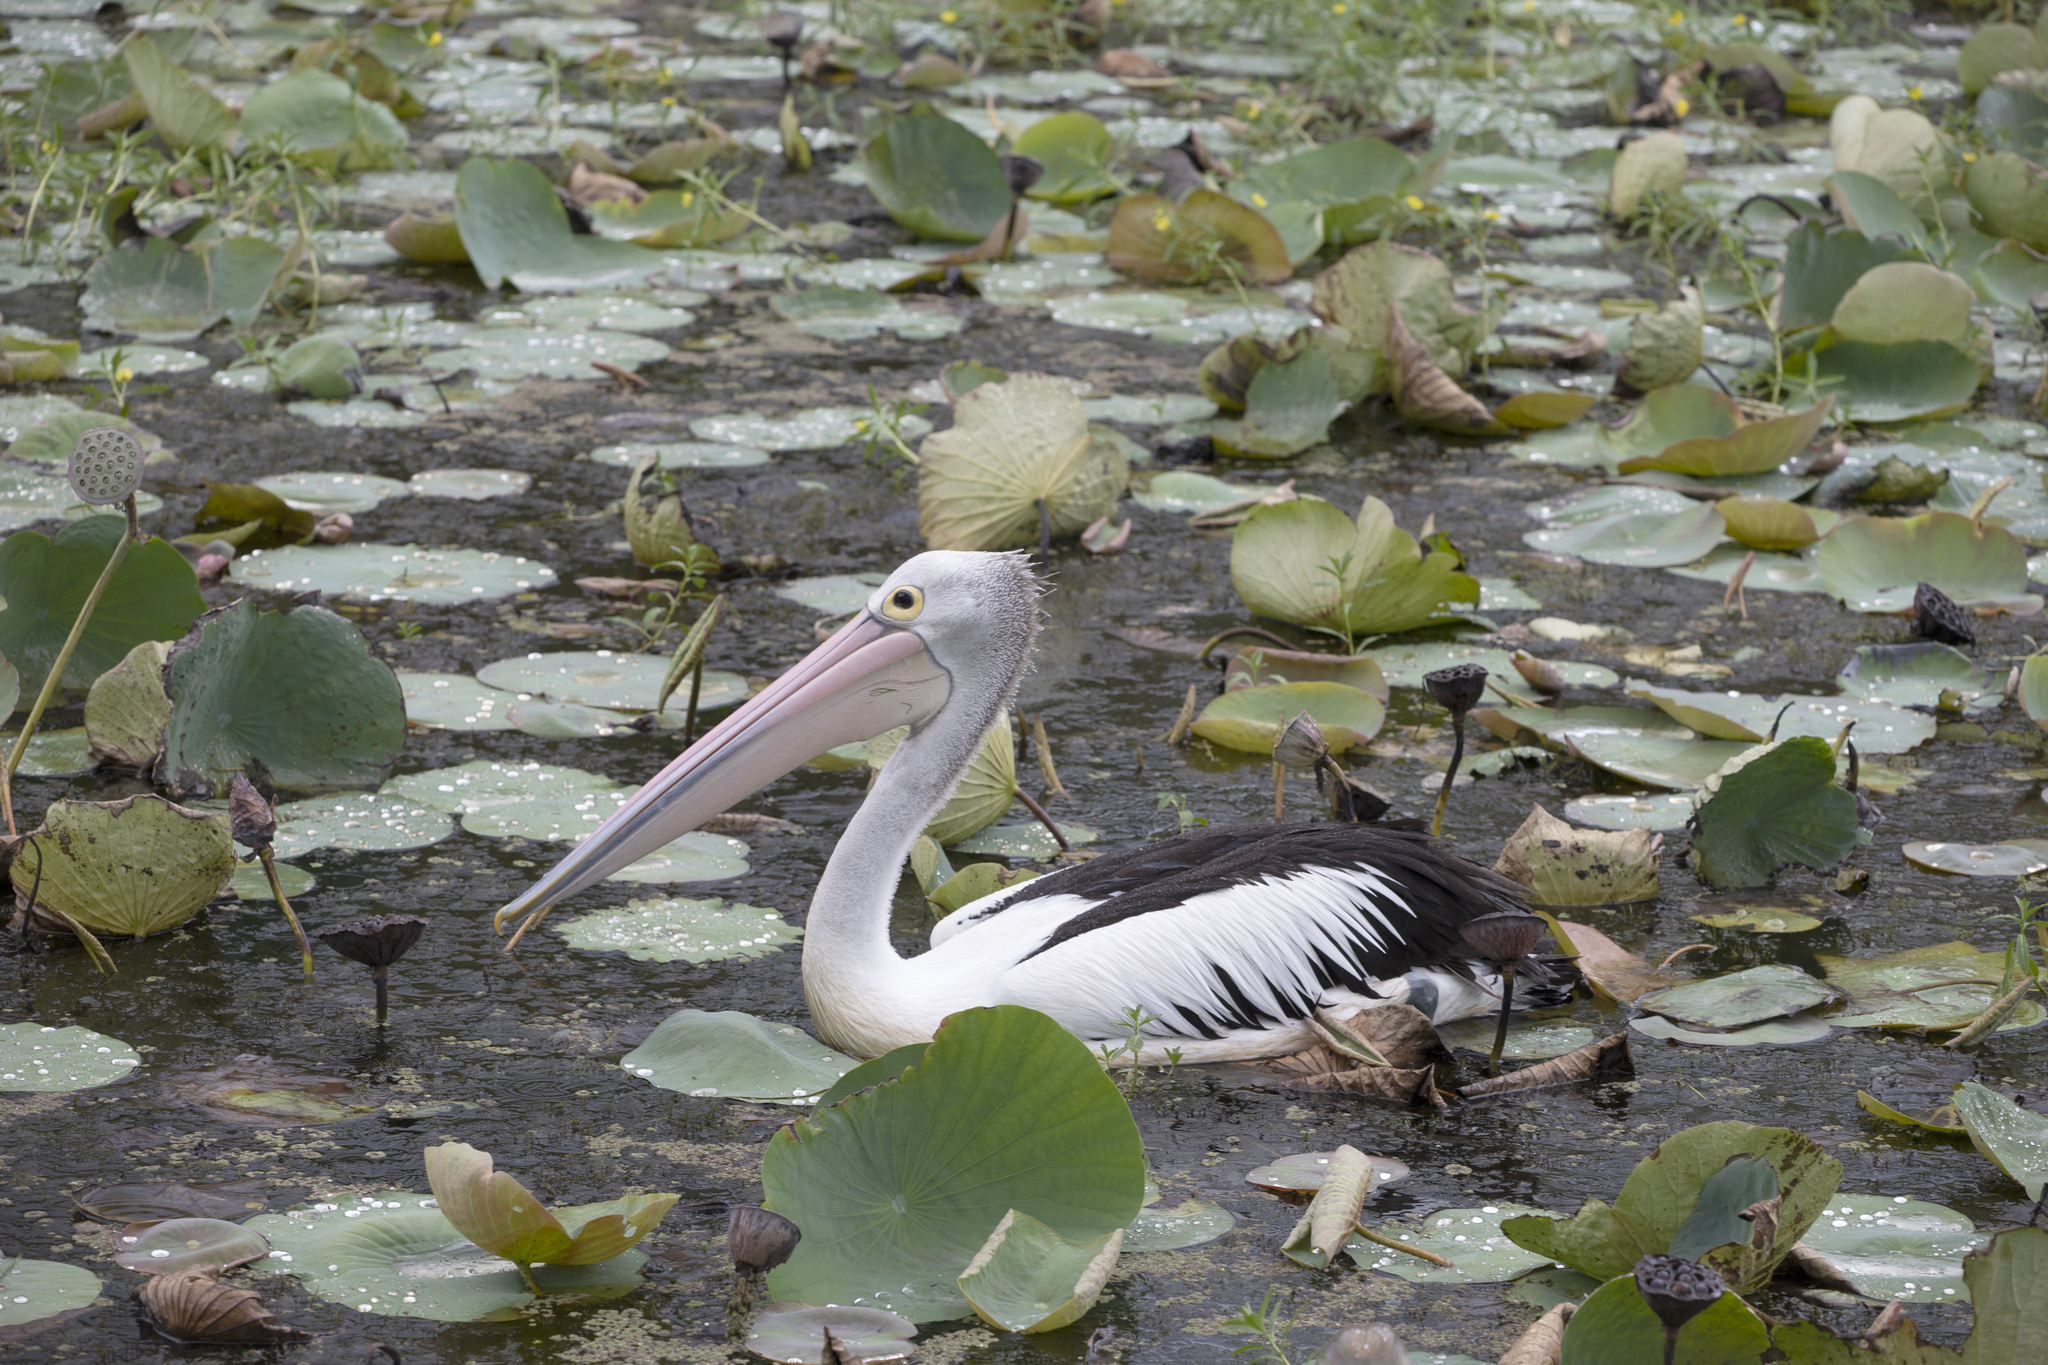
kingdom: Animalia
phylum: Chordata
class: Aves
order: Pelecaniformes
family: Pelecanidae
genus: Pelecanus
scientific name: Pelecanus conspicillatus
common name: Australian pelican
